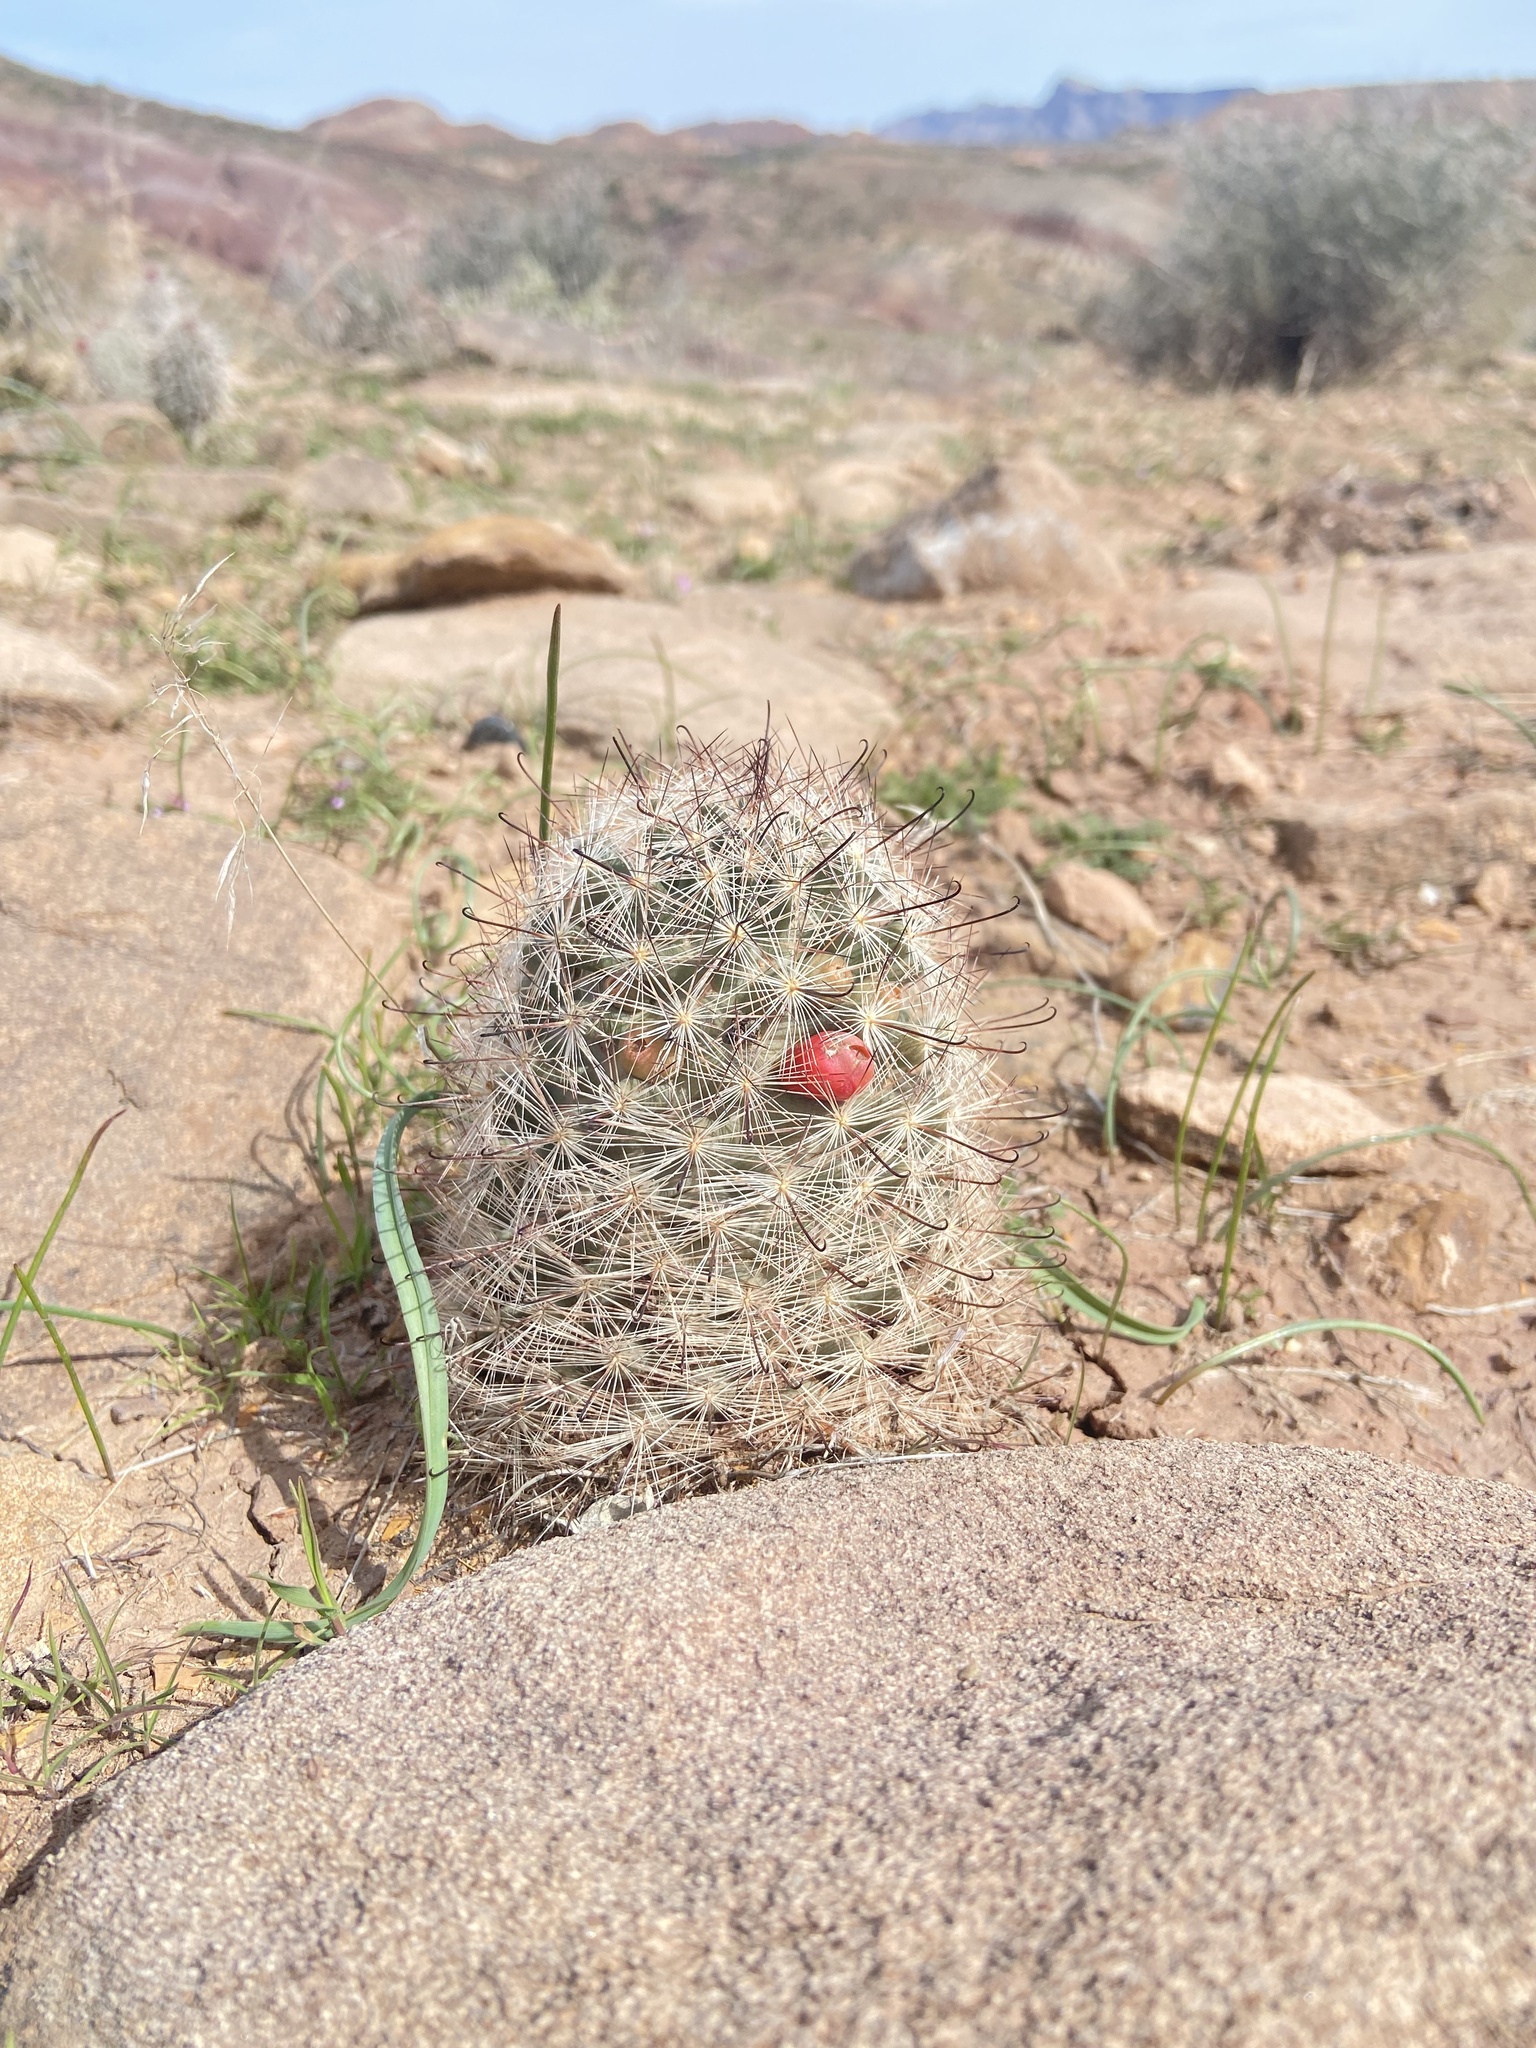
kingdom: Plantae
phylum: Tracheophyta
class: Magnoliopsida
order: Caryophyllales
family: Cactaceae
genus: Cochemiea
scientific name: Cochemiea tetrancistra
